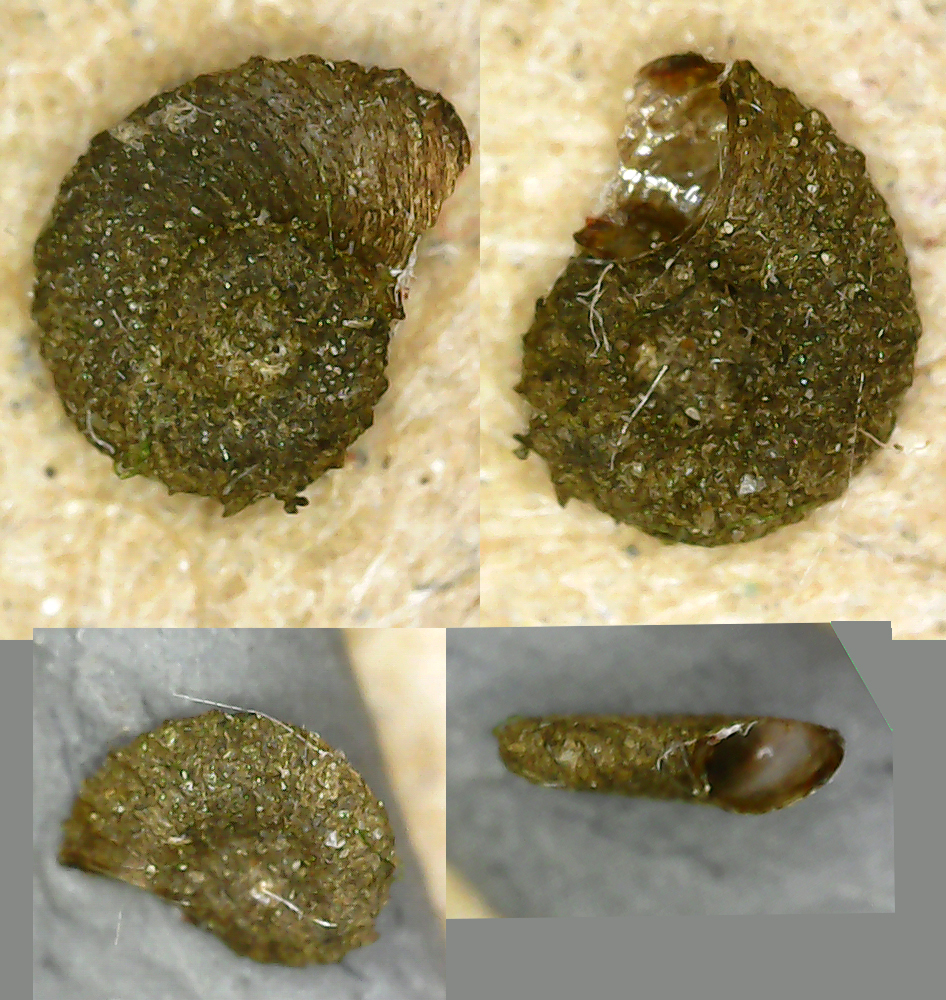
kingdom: Animalia
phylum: Mollusca
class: Gastropoda
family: Planorbidae
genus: Armiger
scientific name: Armiger crista
